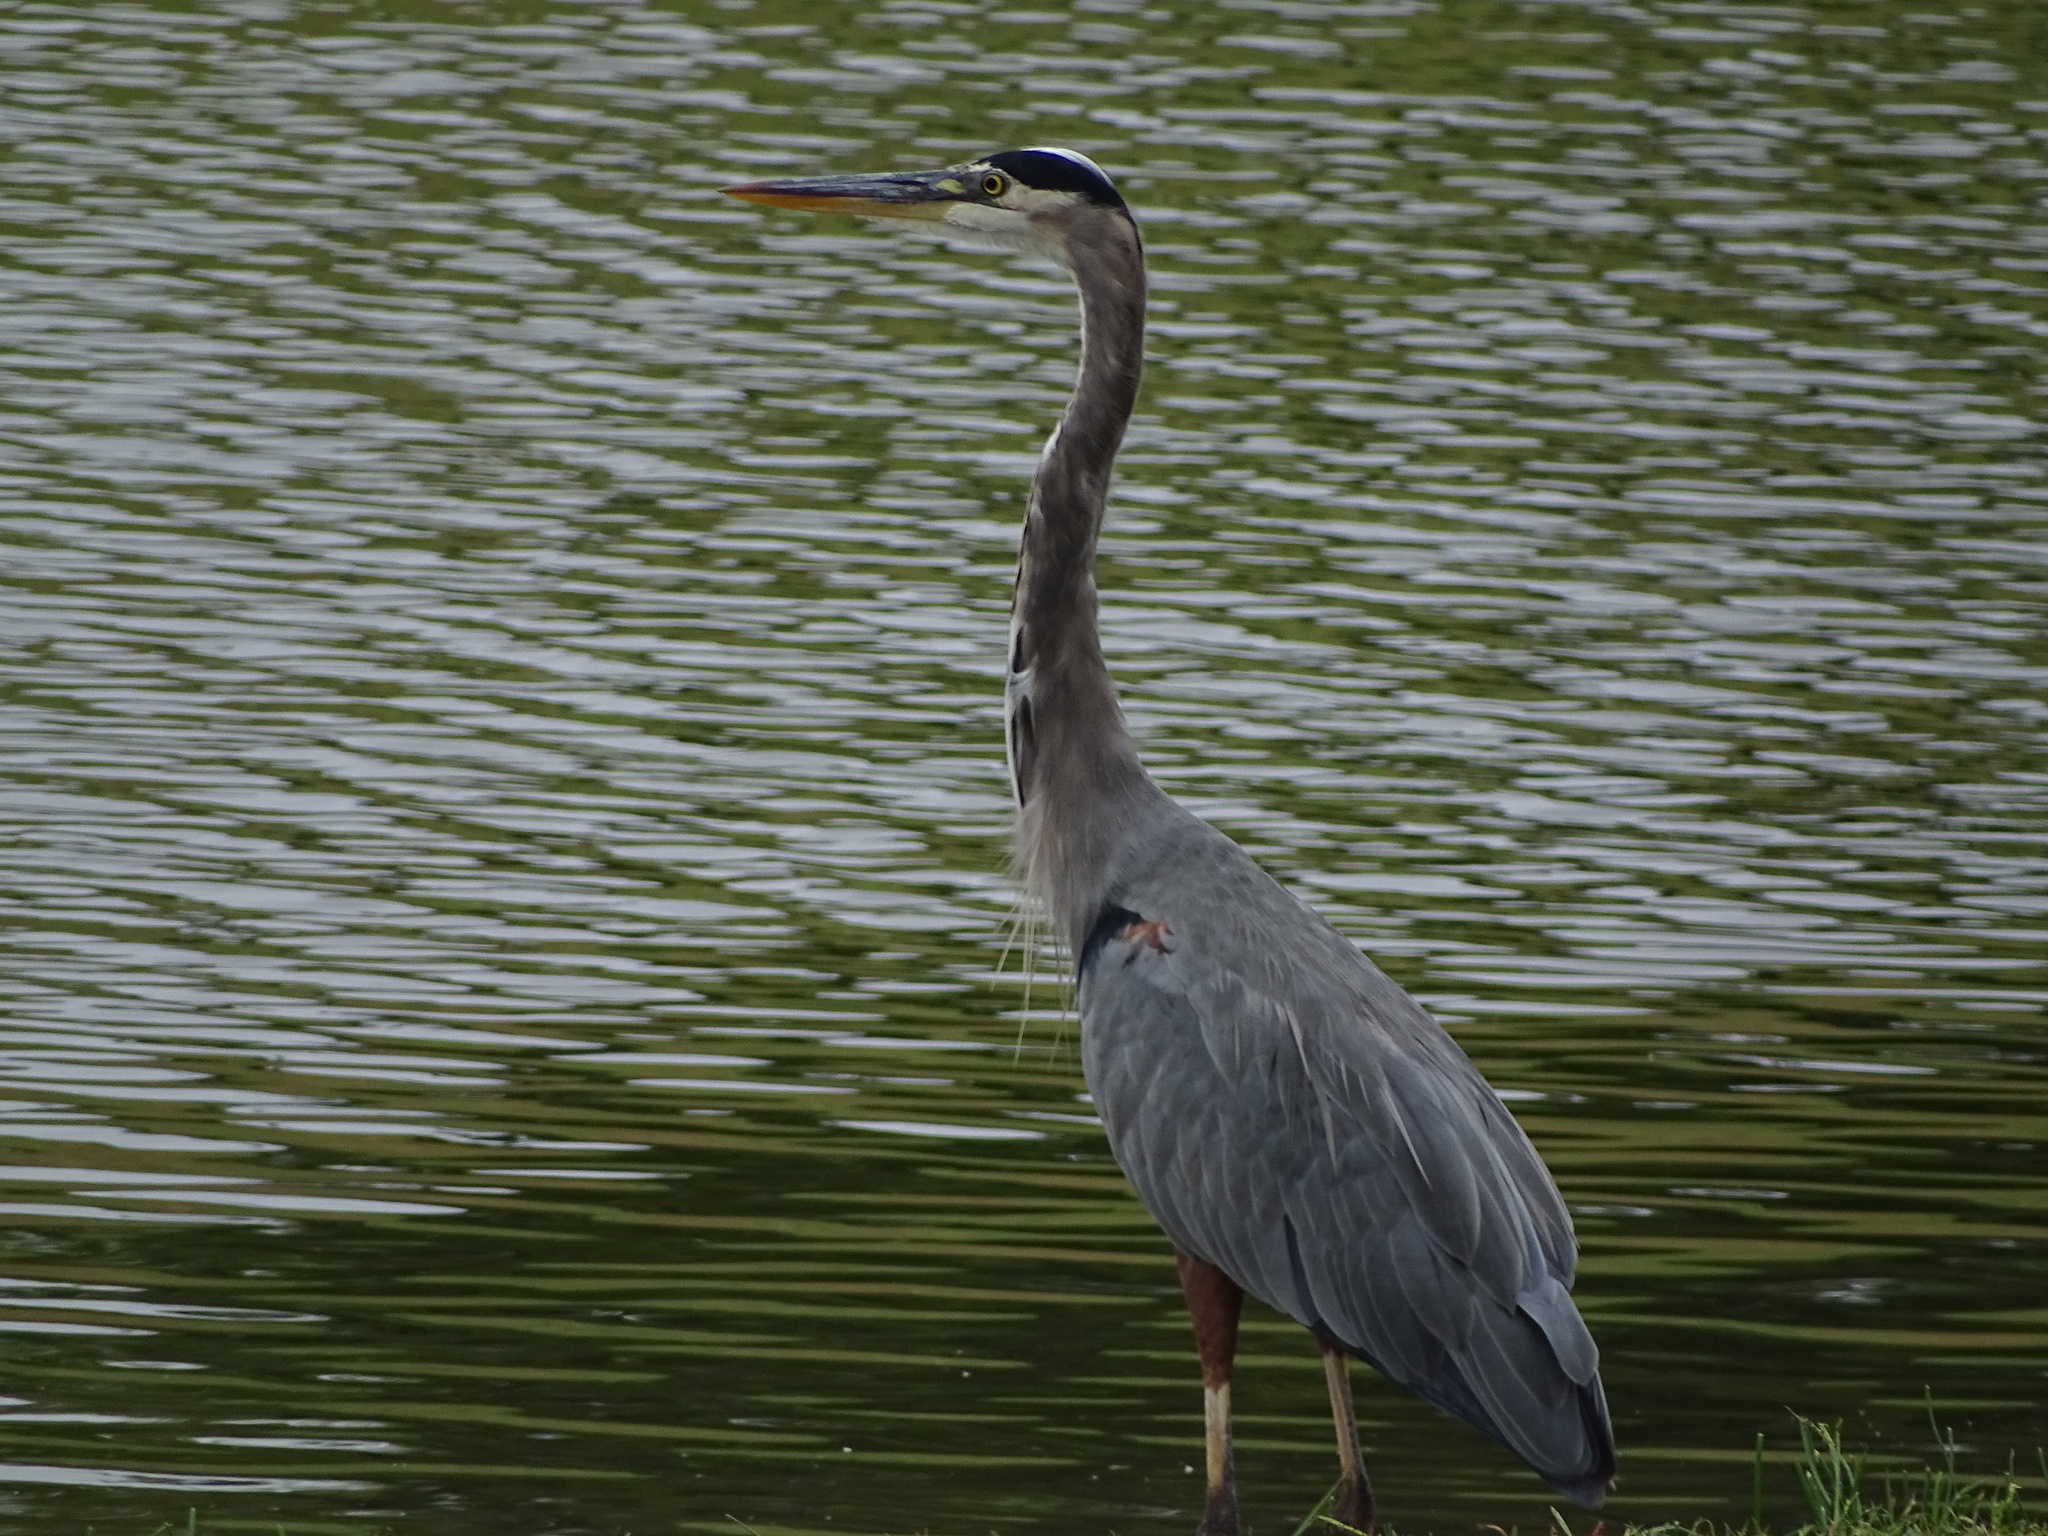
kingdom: Animalia
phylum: Chordata
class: Aves
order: Pelecaniformes
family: Ardeidae
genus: Ardea
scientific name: Ardea herodias
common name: Great blue heron
